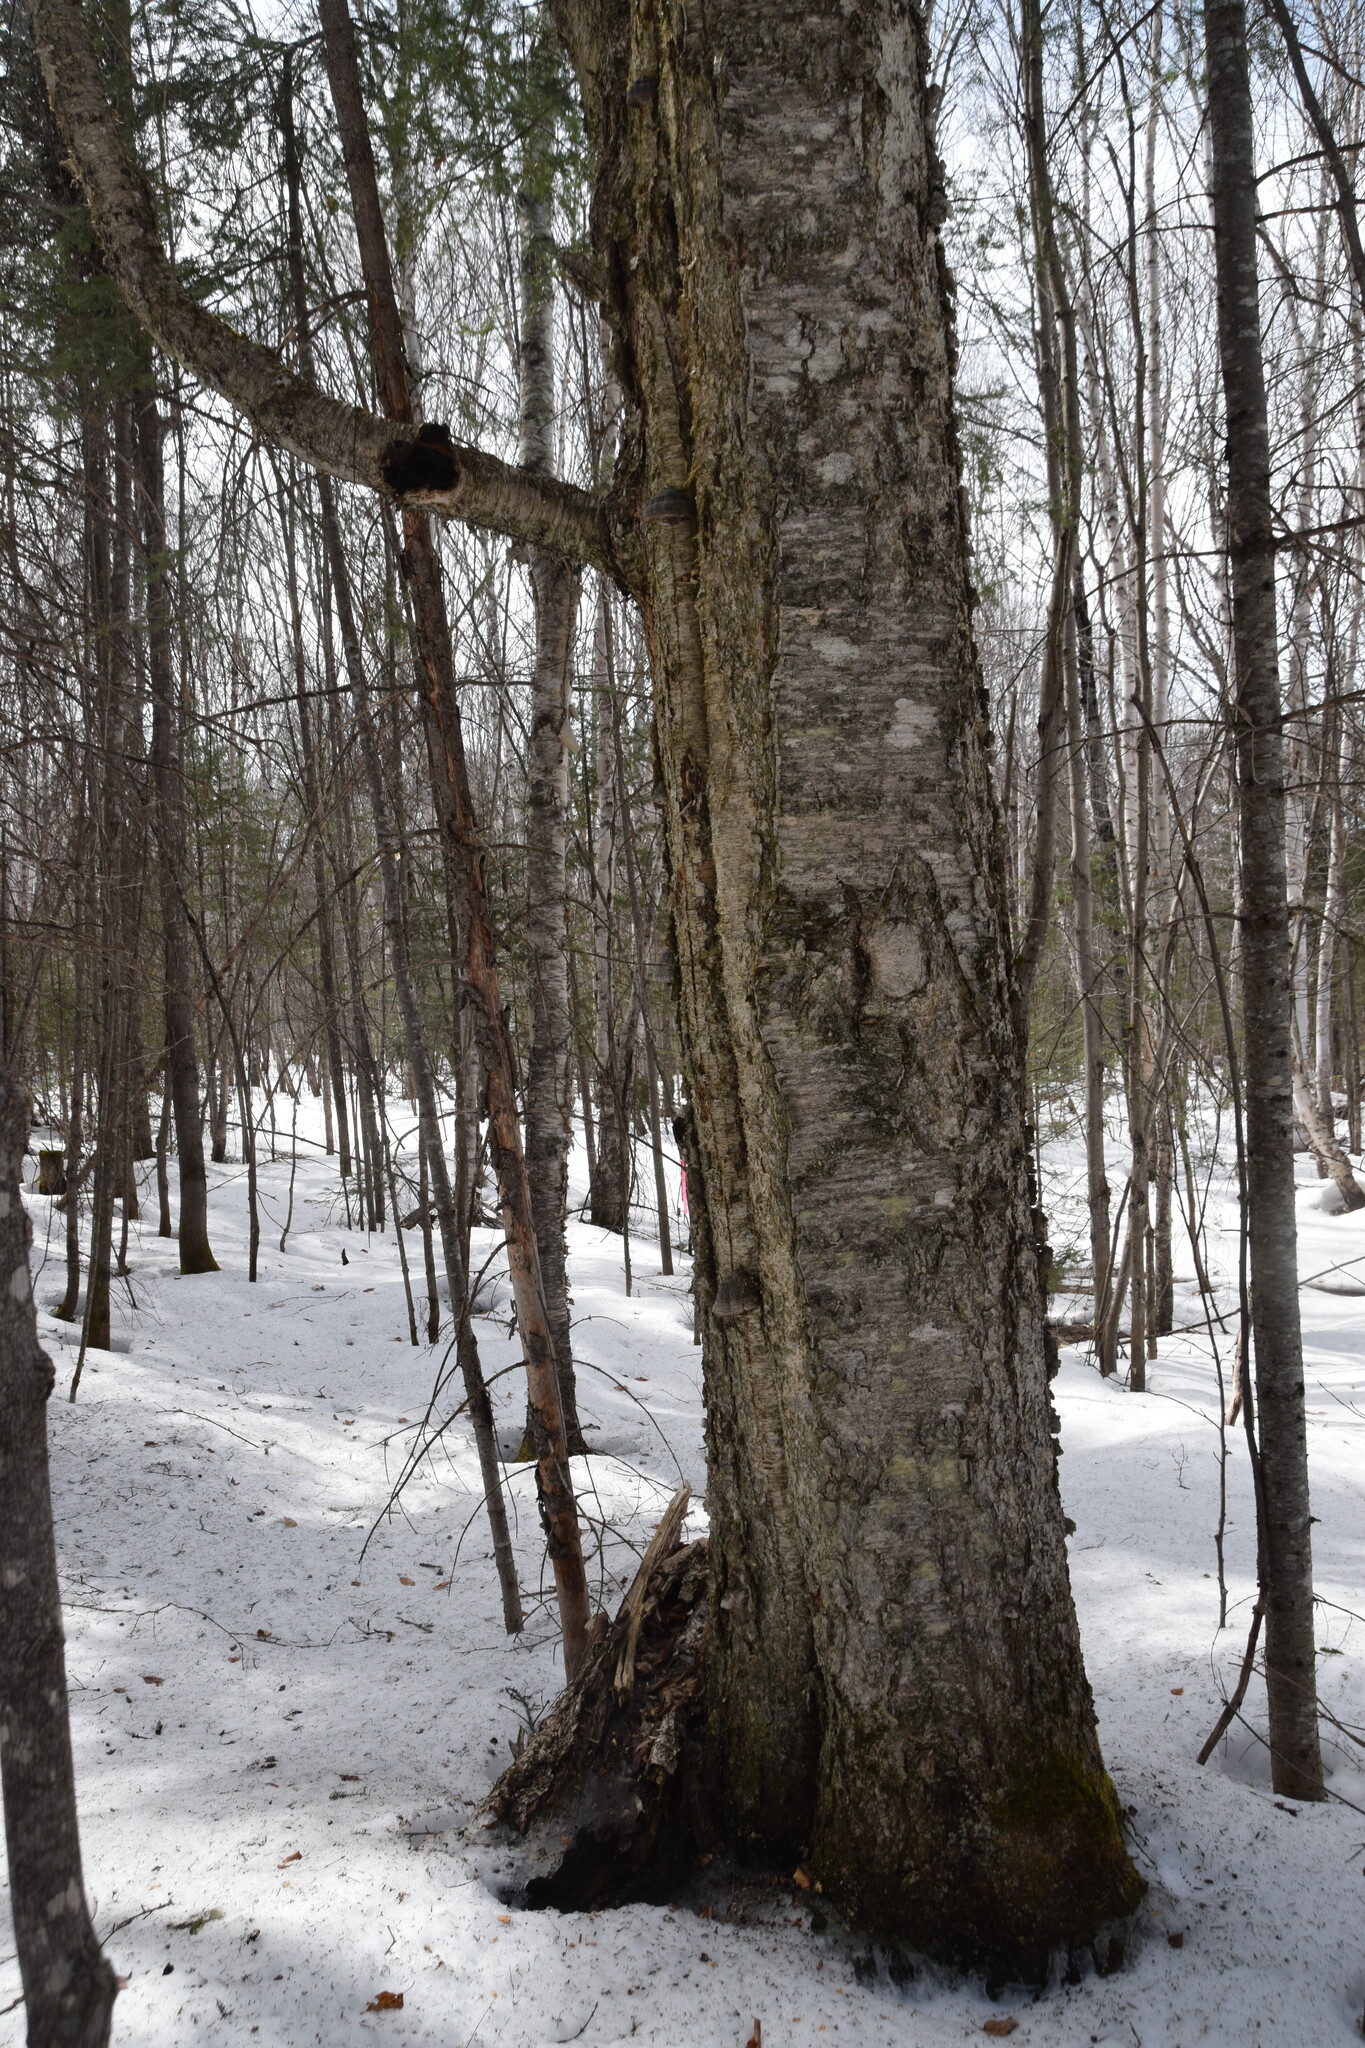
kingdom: Fungi
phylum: Basidiomycota
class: Agaricomycetes
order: Hymenochaetales
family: Hymenochaetaceae
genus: Inonotus
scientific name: Inonotus obliquus
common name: Chaga
